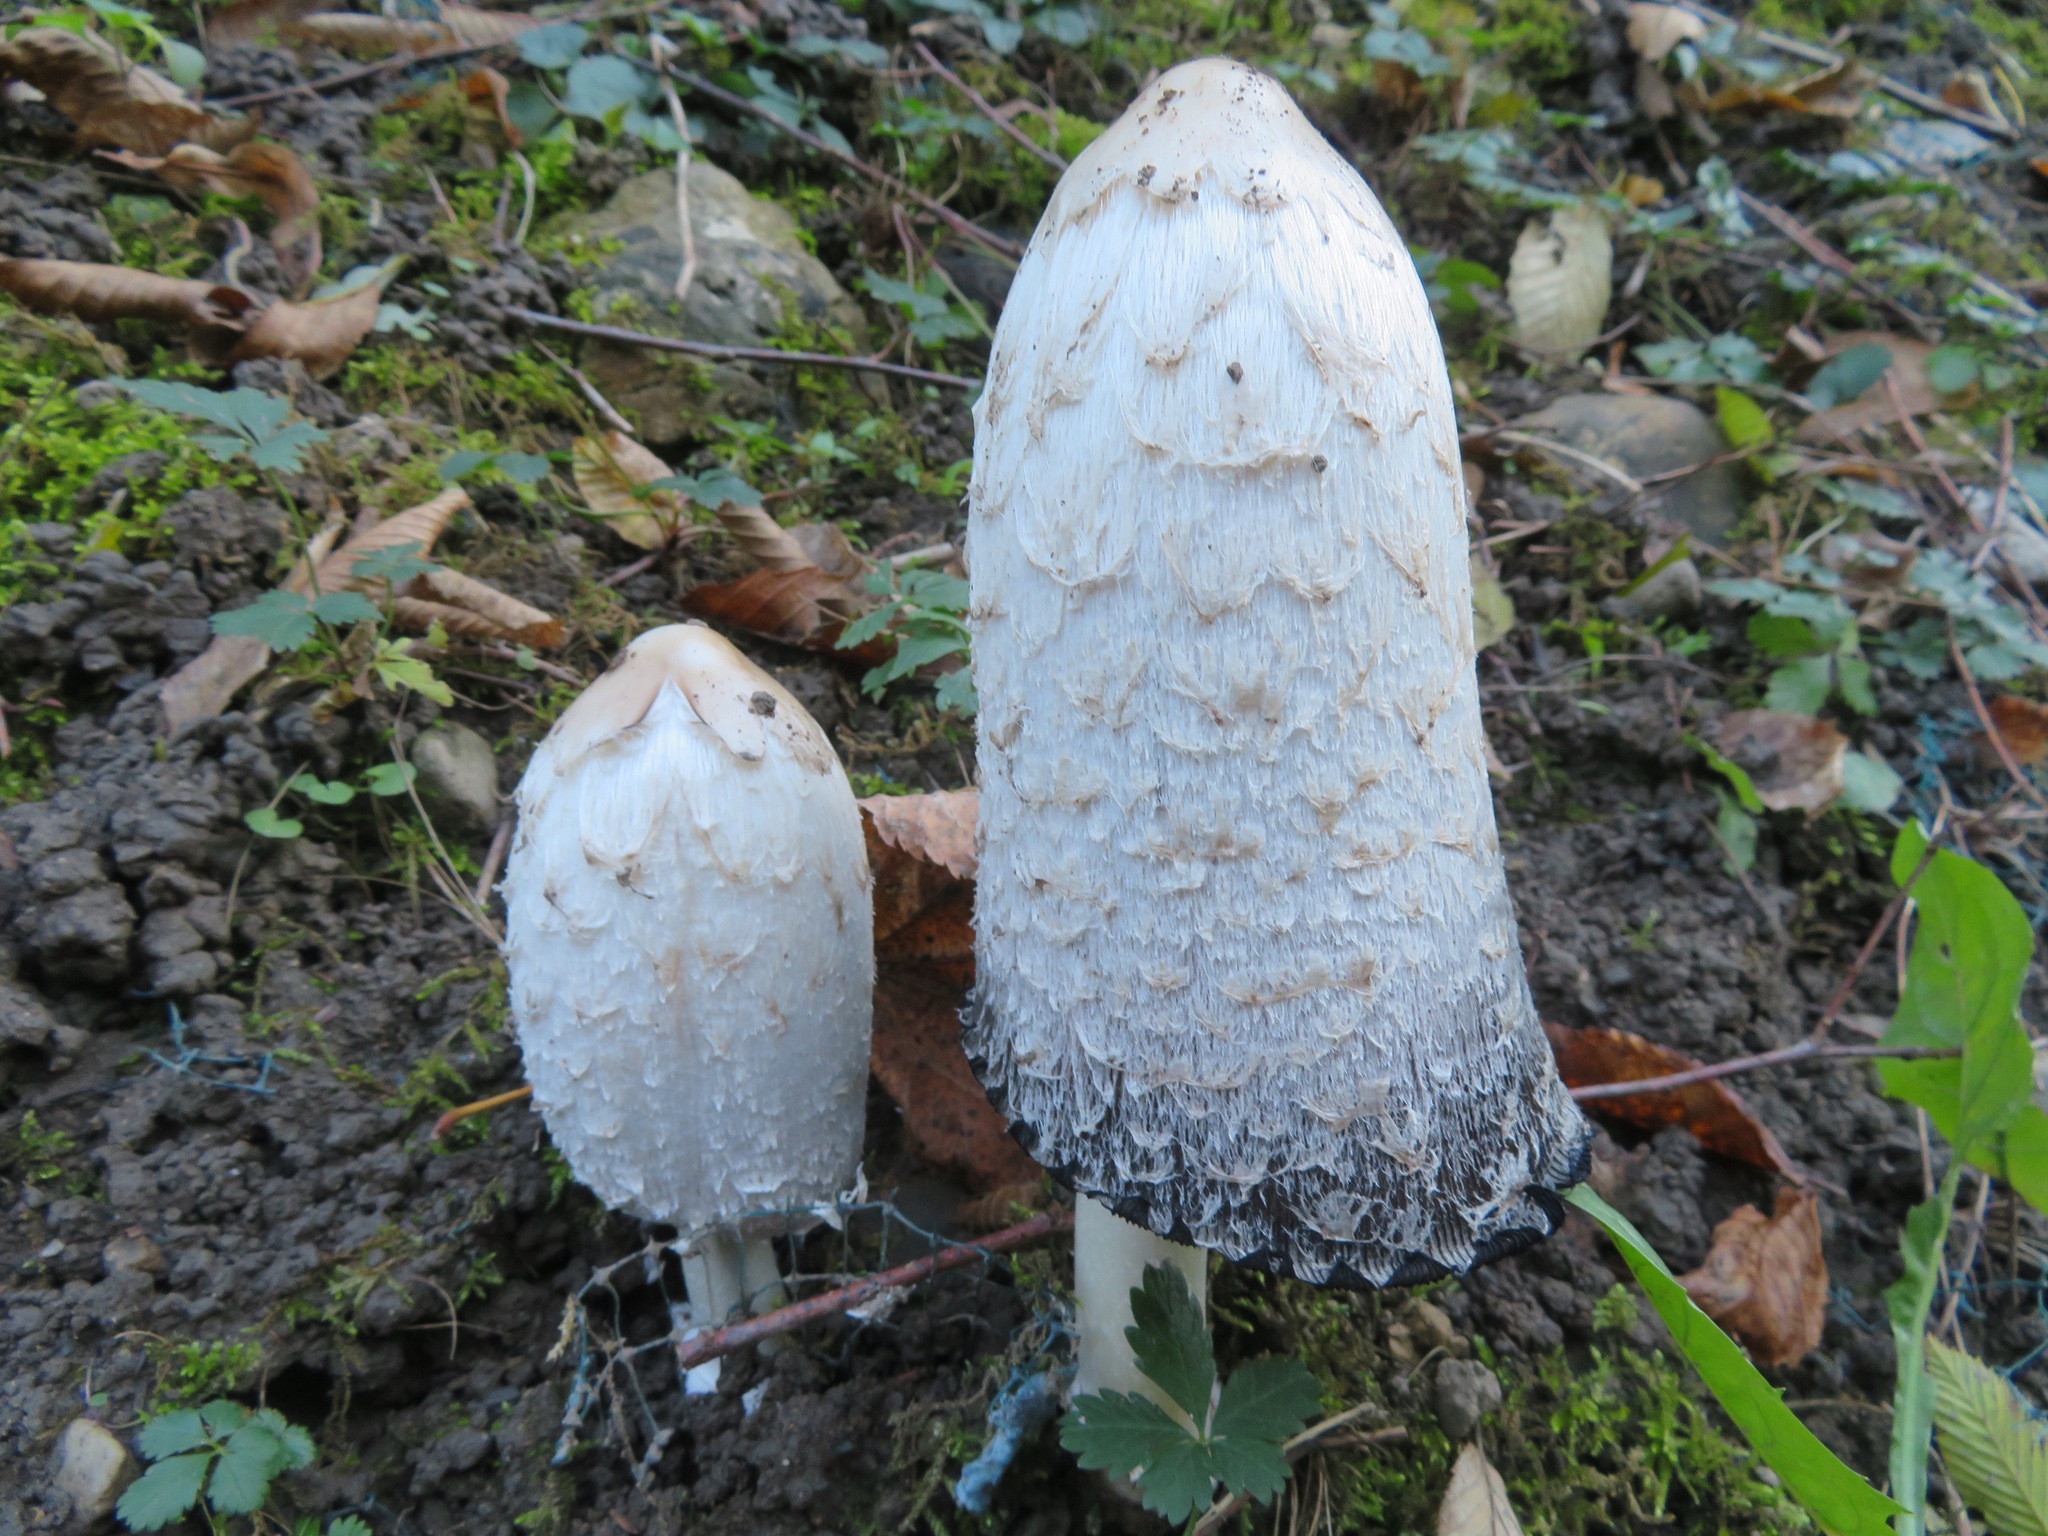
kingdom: Fungi
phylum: Basidiomycota
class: Agaricomycetes
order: Agaricales
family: Agaricaceae
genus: Coprinus
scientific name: Coprinus comatus
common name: Lawyer's wig
